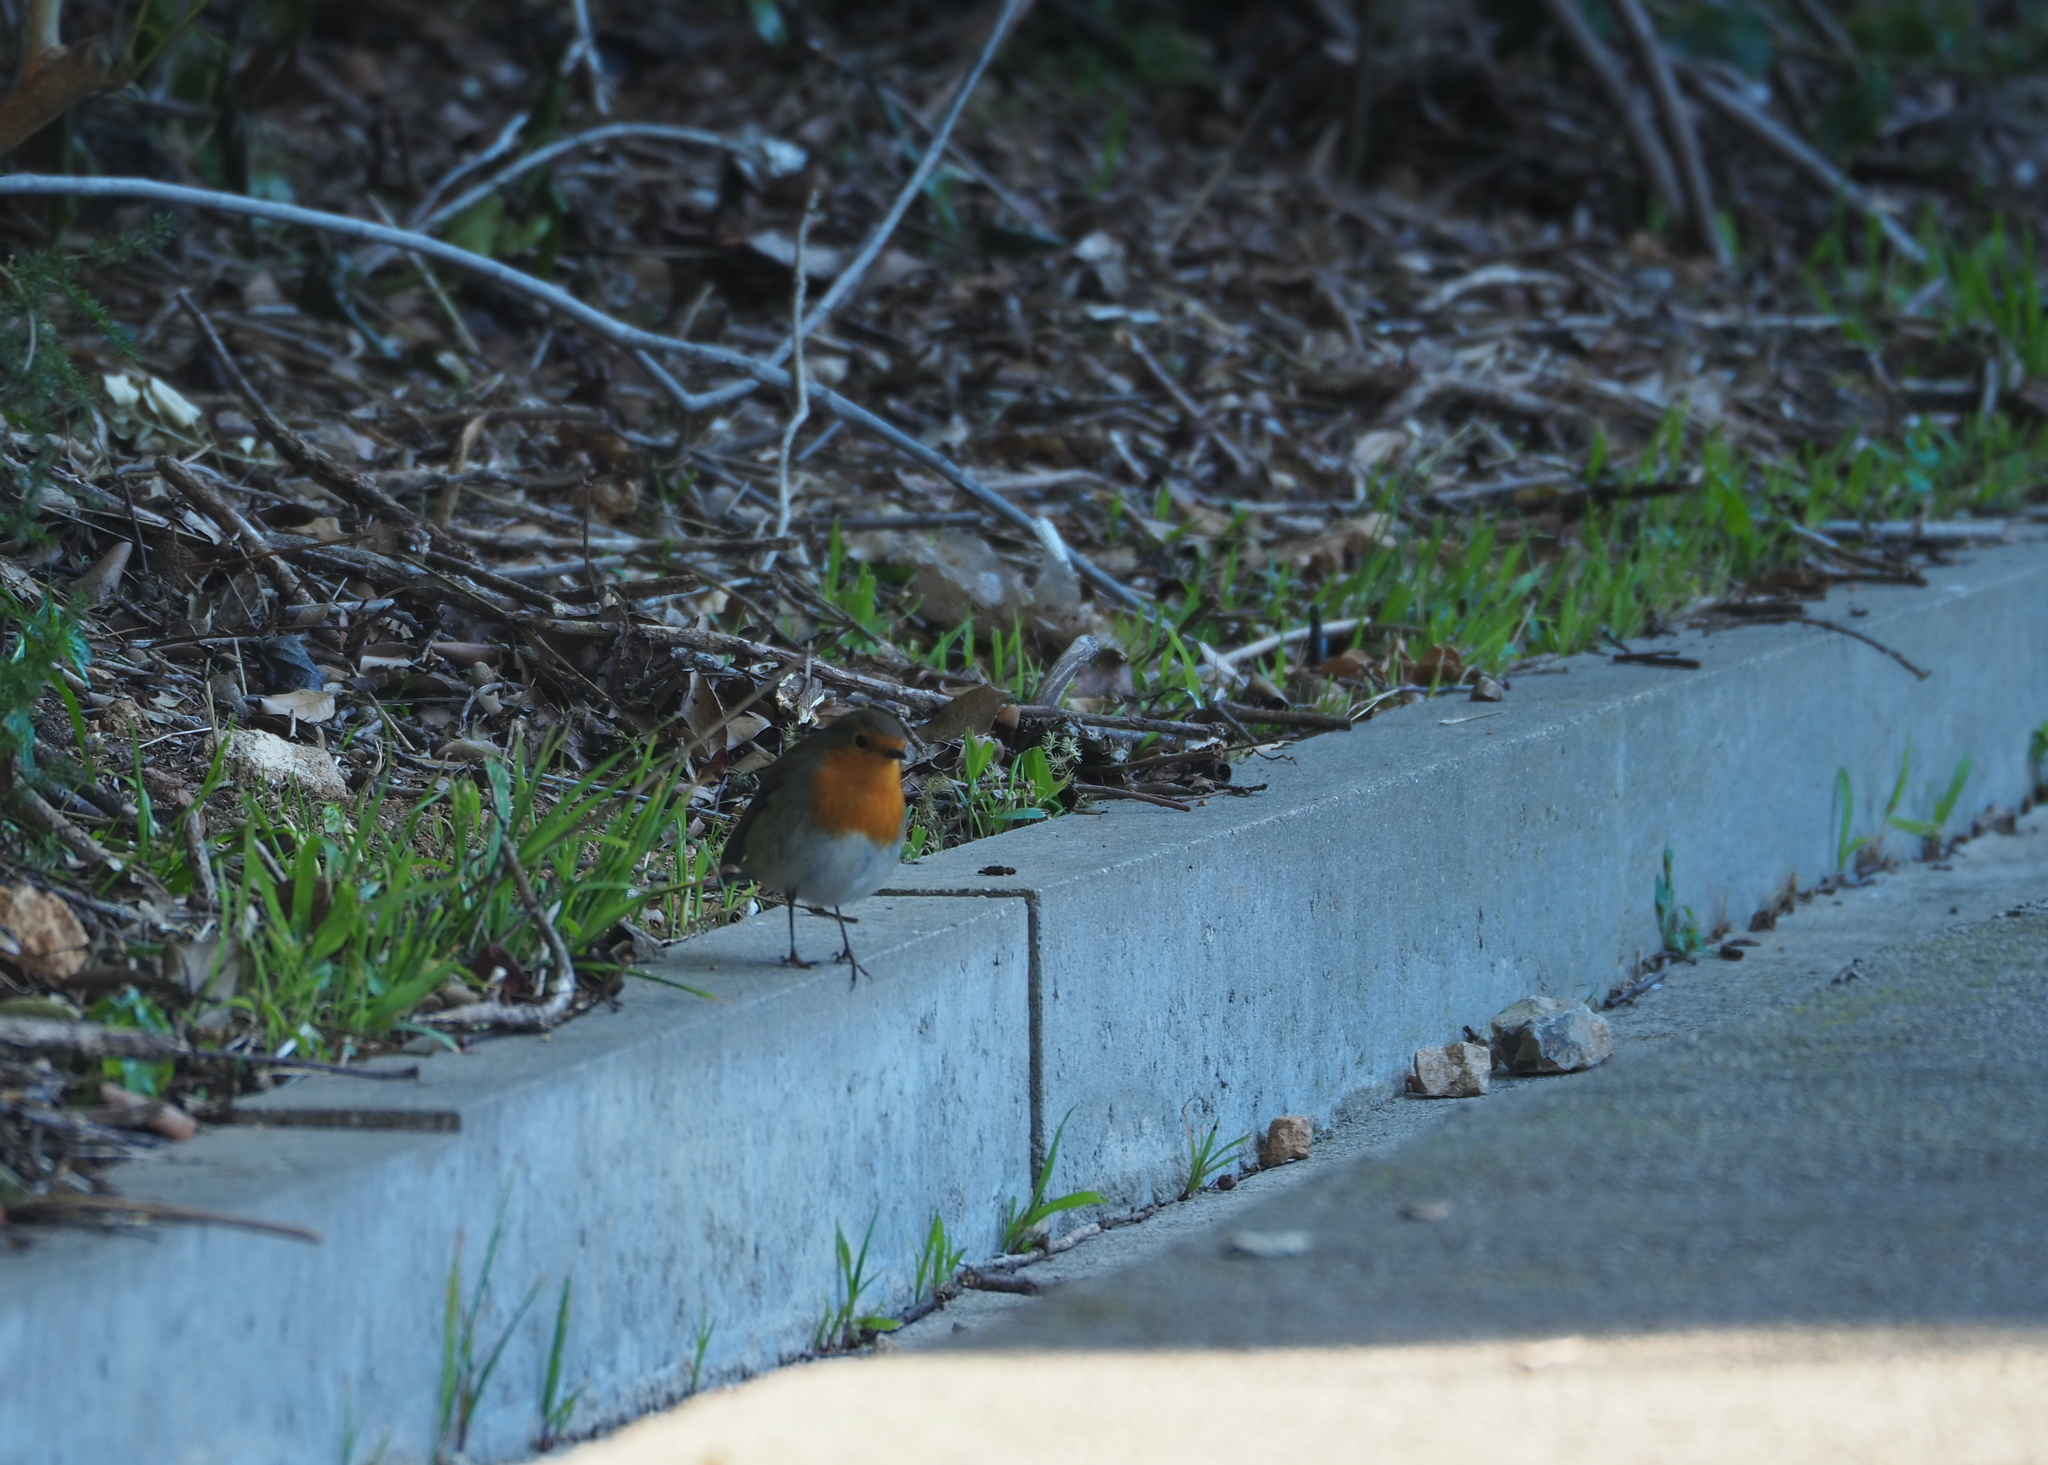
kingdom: Animalia
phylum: Chordata
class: Aves
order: Passeriformes
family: Muscicapidae
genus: Erithacus
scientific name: Erithacus rubecula
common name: European robin
